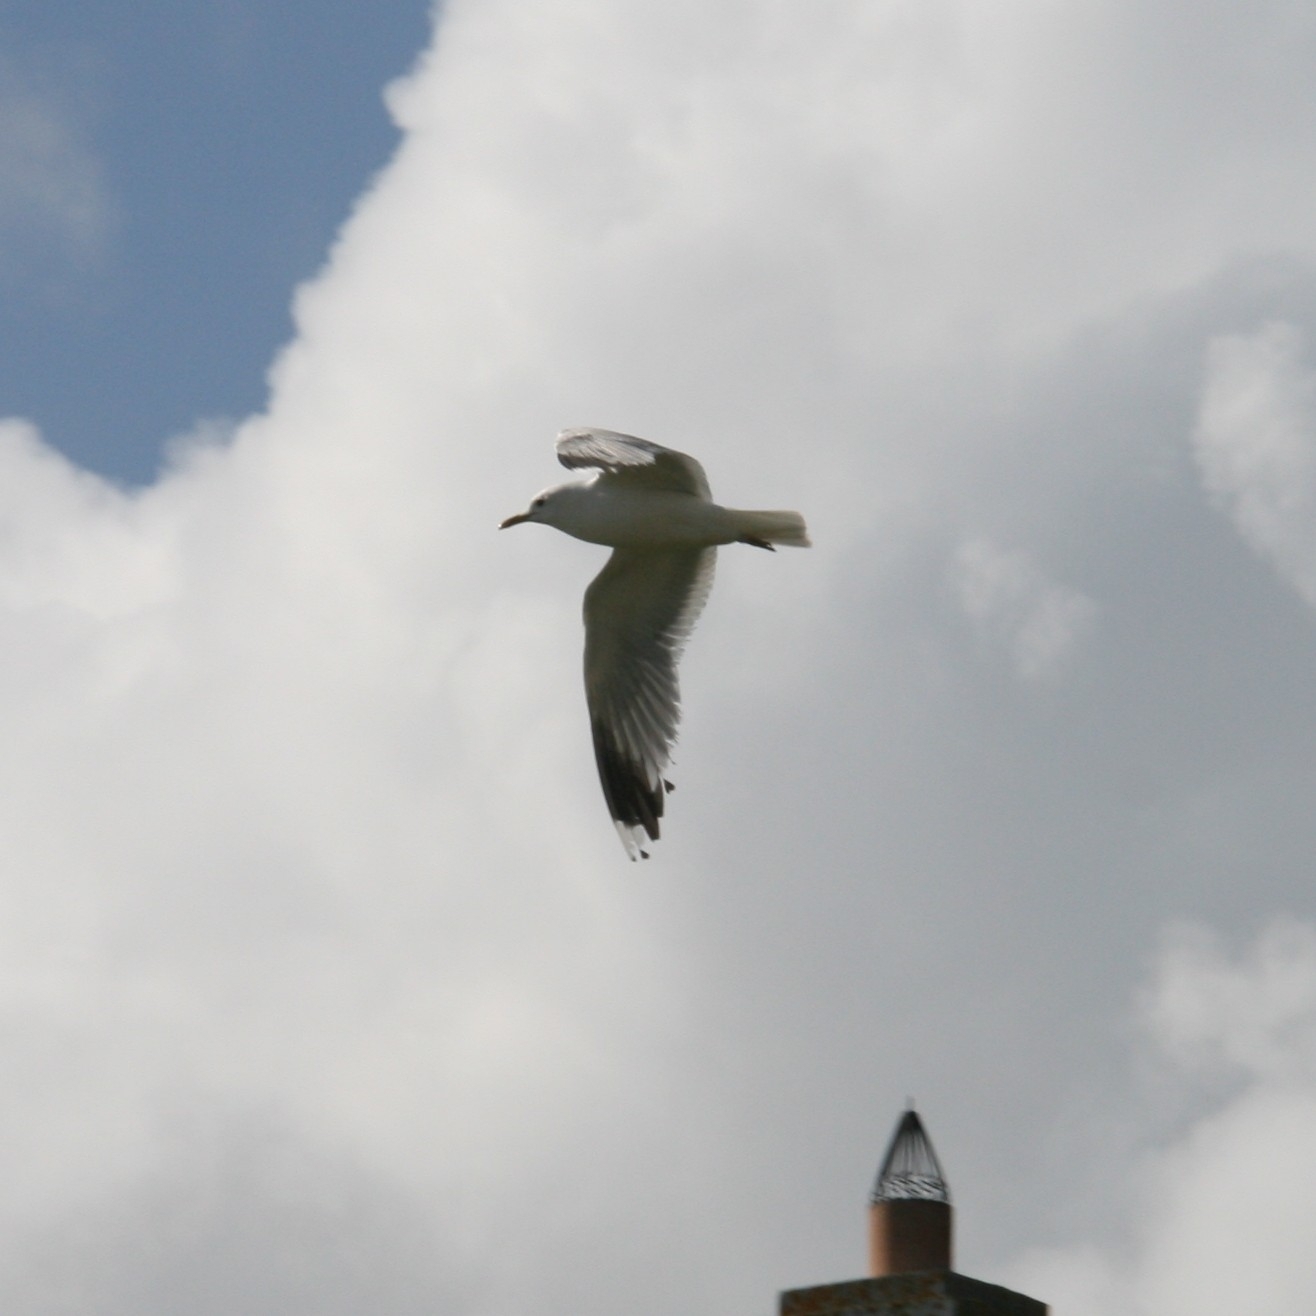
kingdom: Animalia
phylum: Chordata
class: Aves
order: Charadriiformes
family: Laridae
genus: Larus
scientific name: Larus canus
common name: Mew gull
